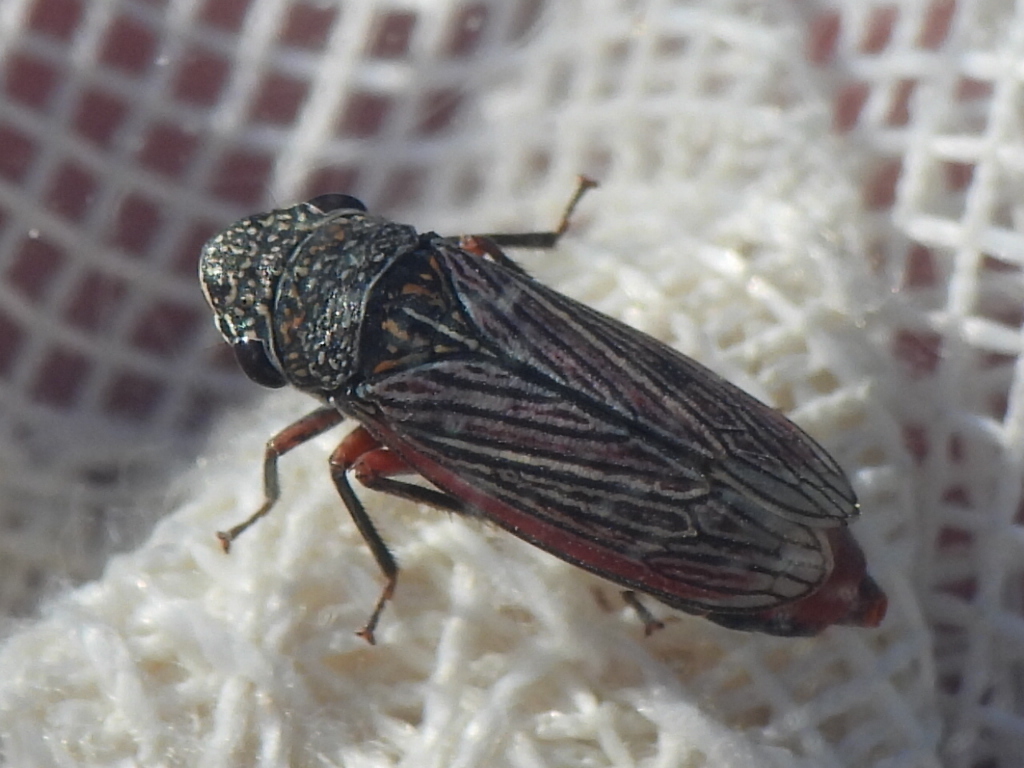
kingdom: Animalia
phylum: Arthropoda
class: Insecta
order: Hemiptera
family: Cicadellidae
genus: Cuerna
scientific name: Cuerna costalis
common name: Lateral-lined sharpshooter
